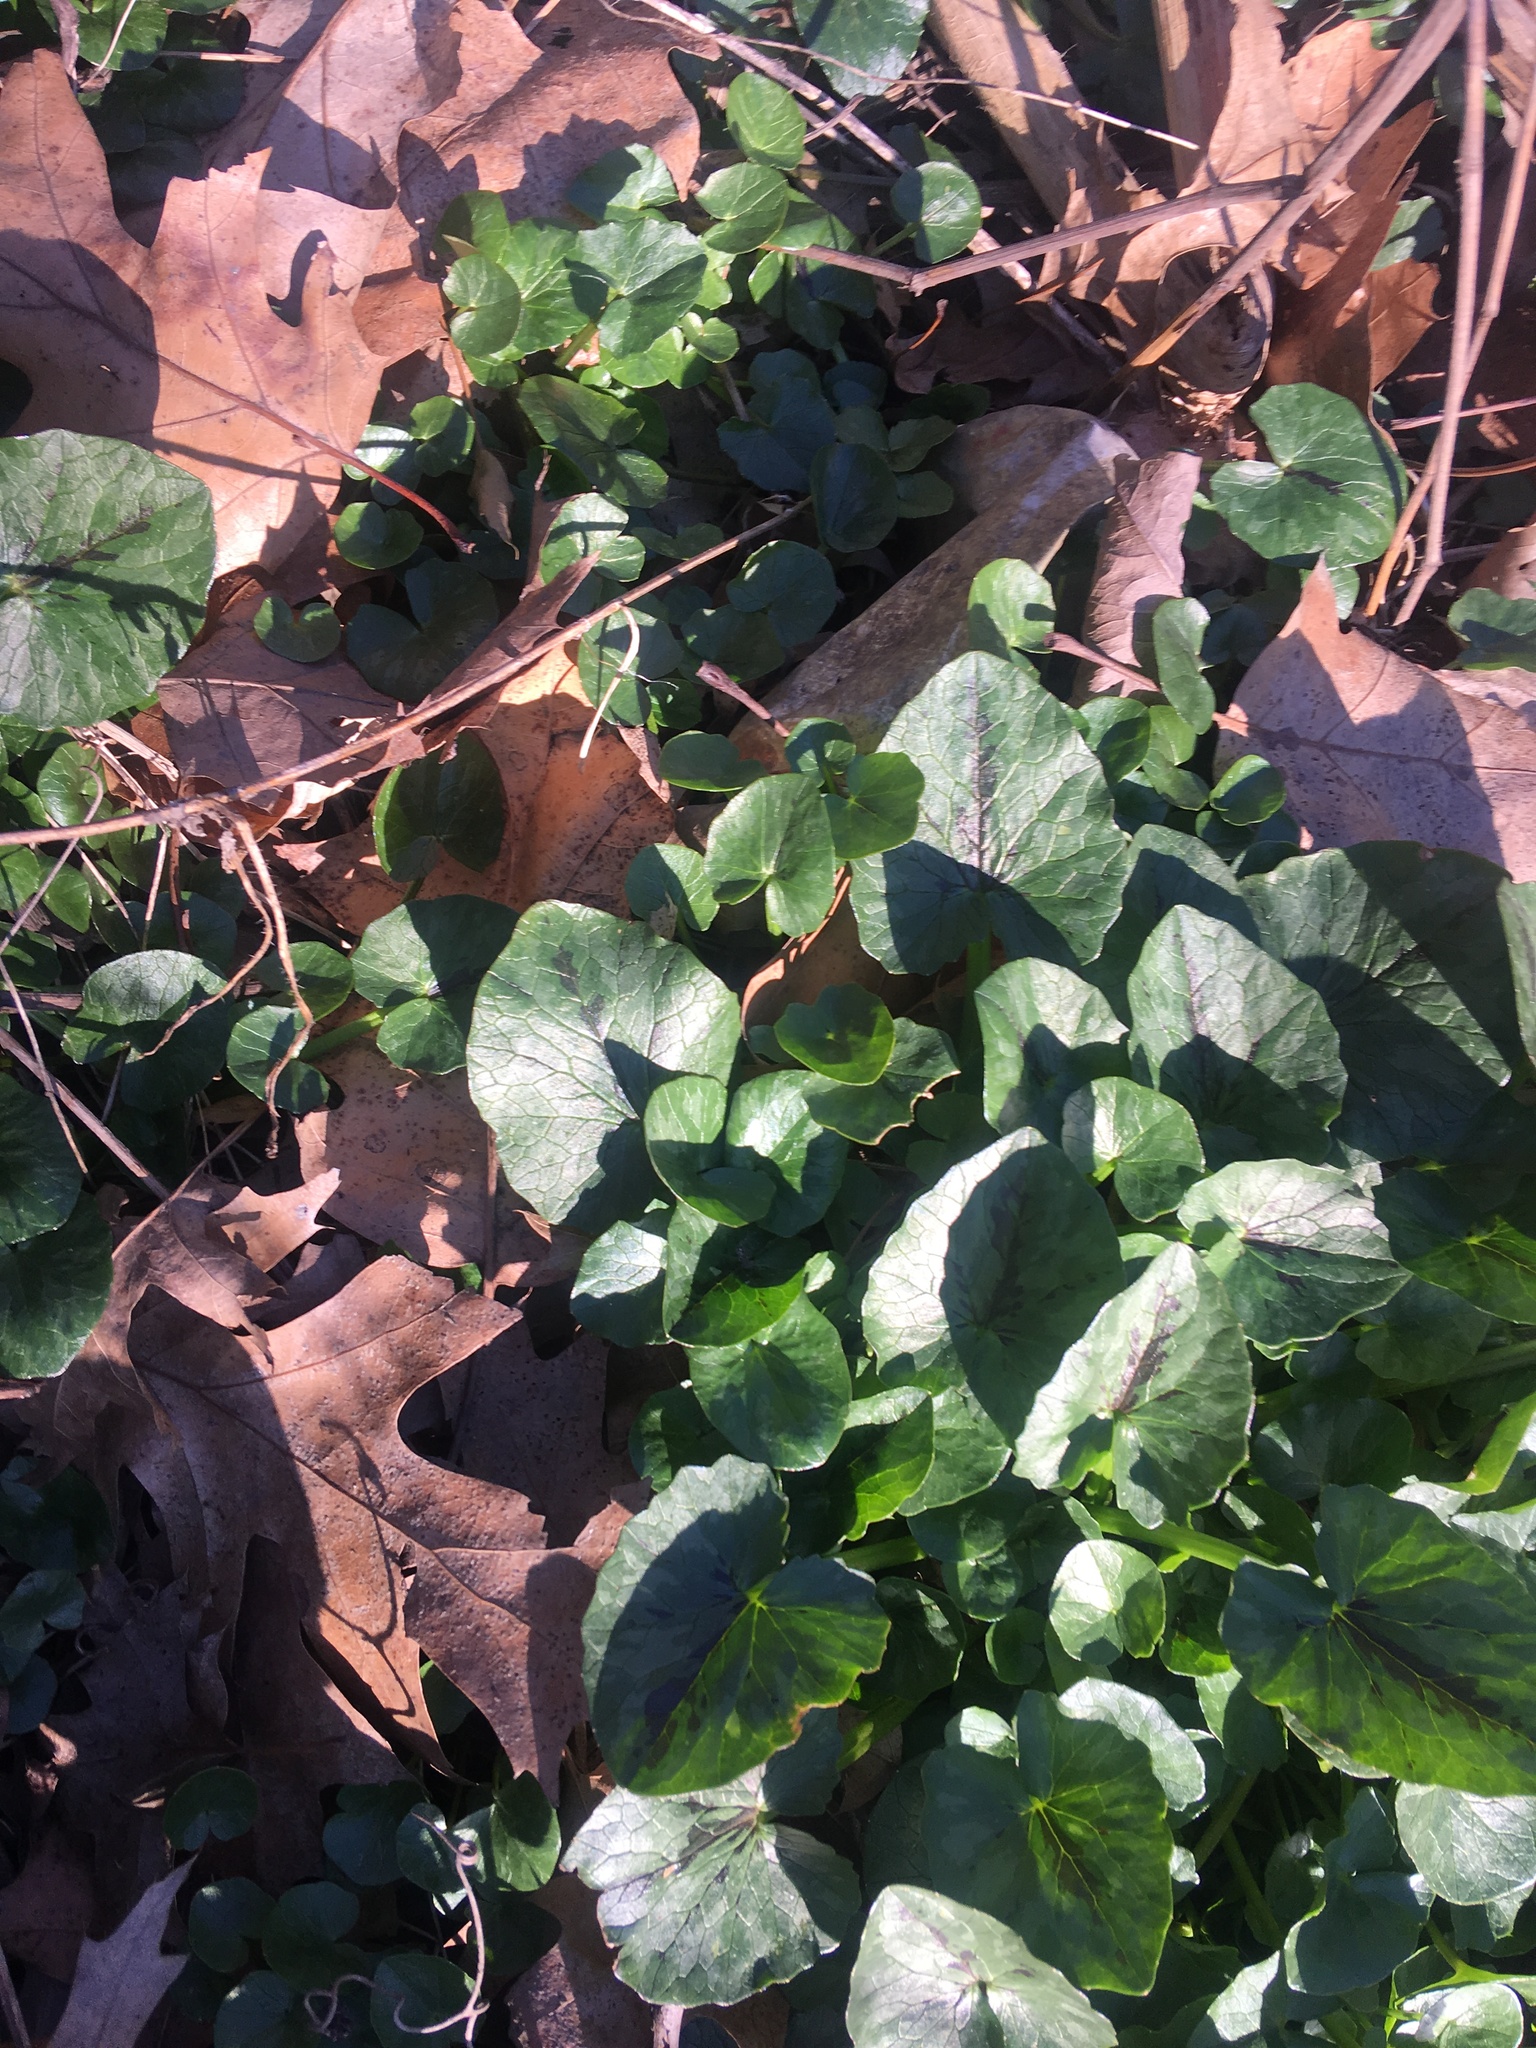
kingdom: Plantae
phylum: Tracheophyta
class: Magnoliopsida
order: Ranunculales
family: Ranunculaceae
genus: Ficaria
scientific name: Ficaria verna
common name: Lesser celandine
